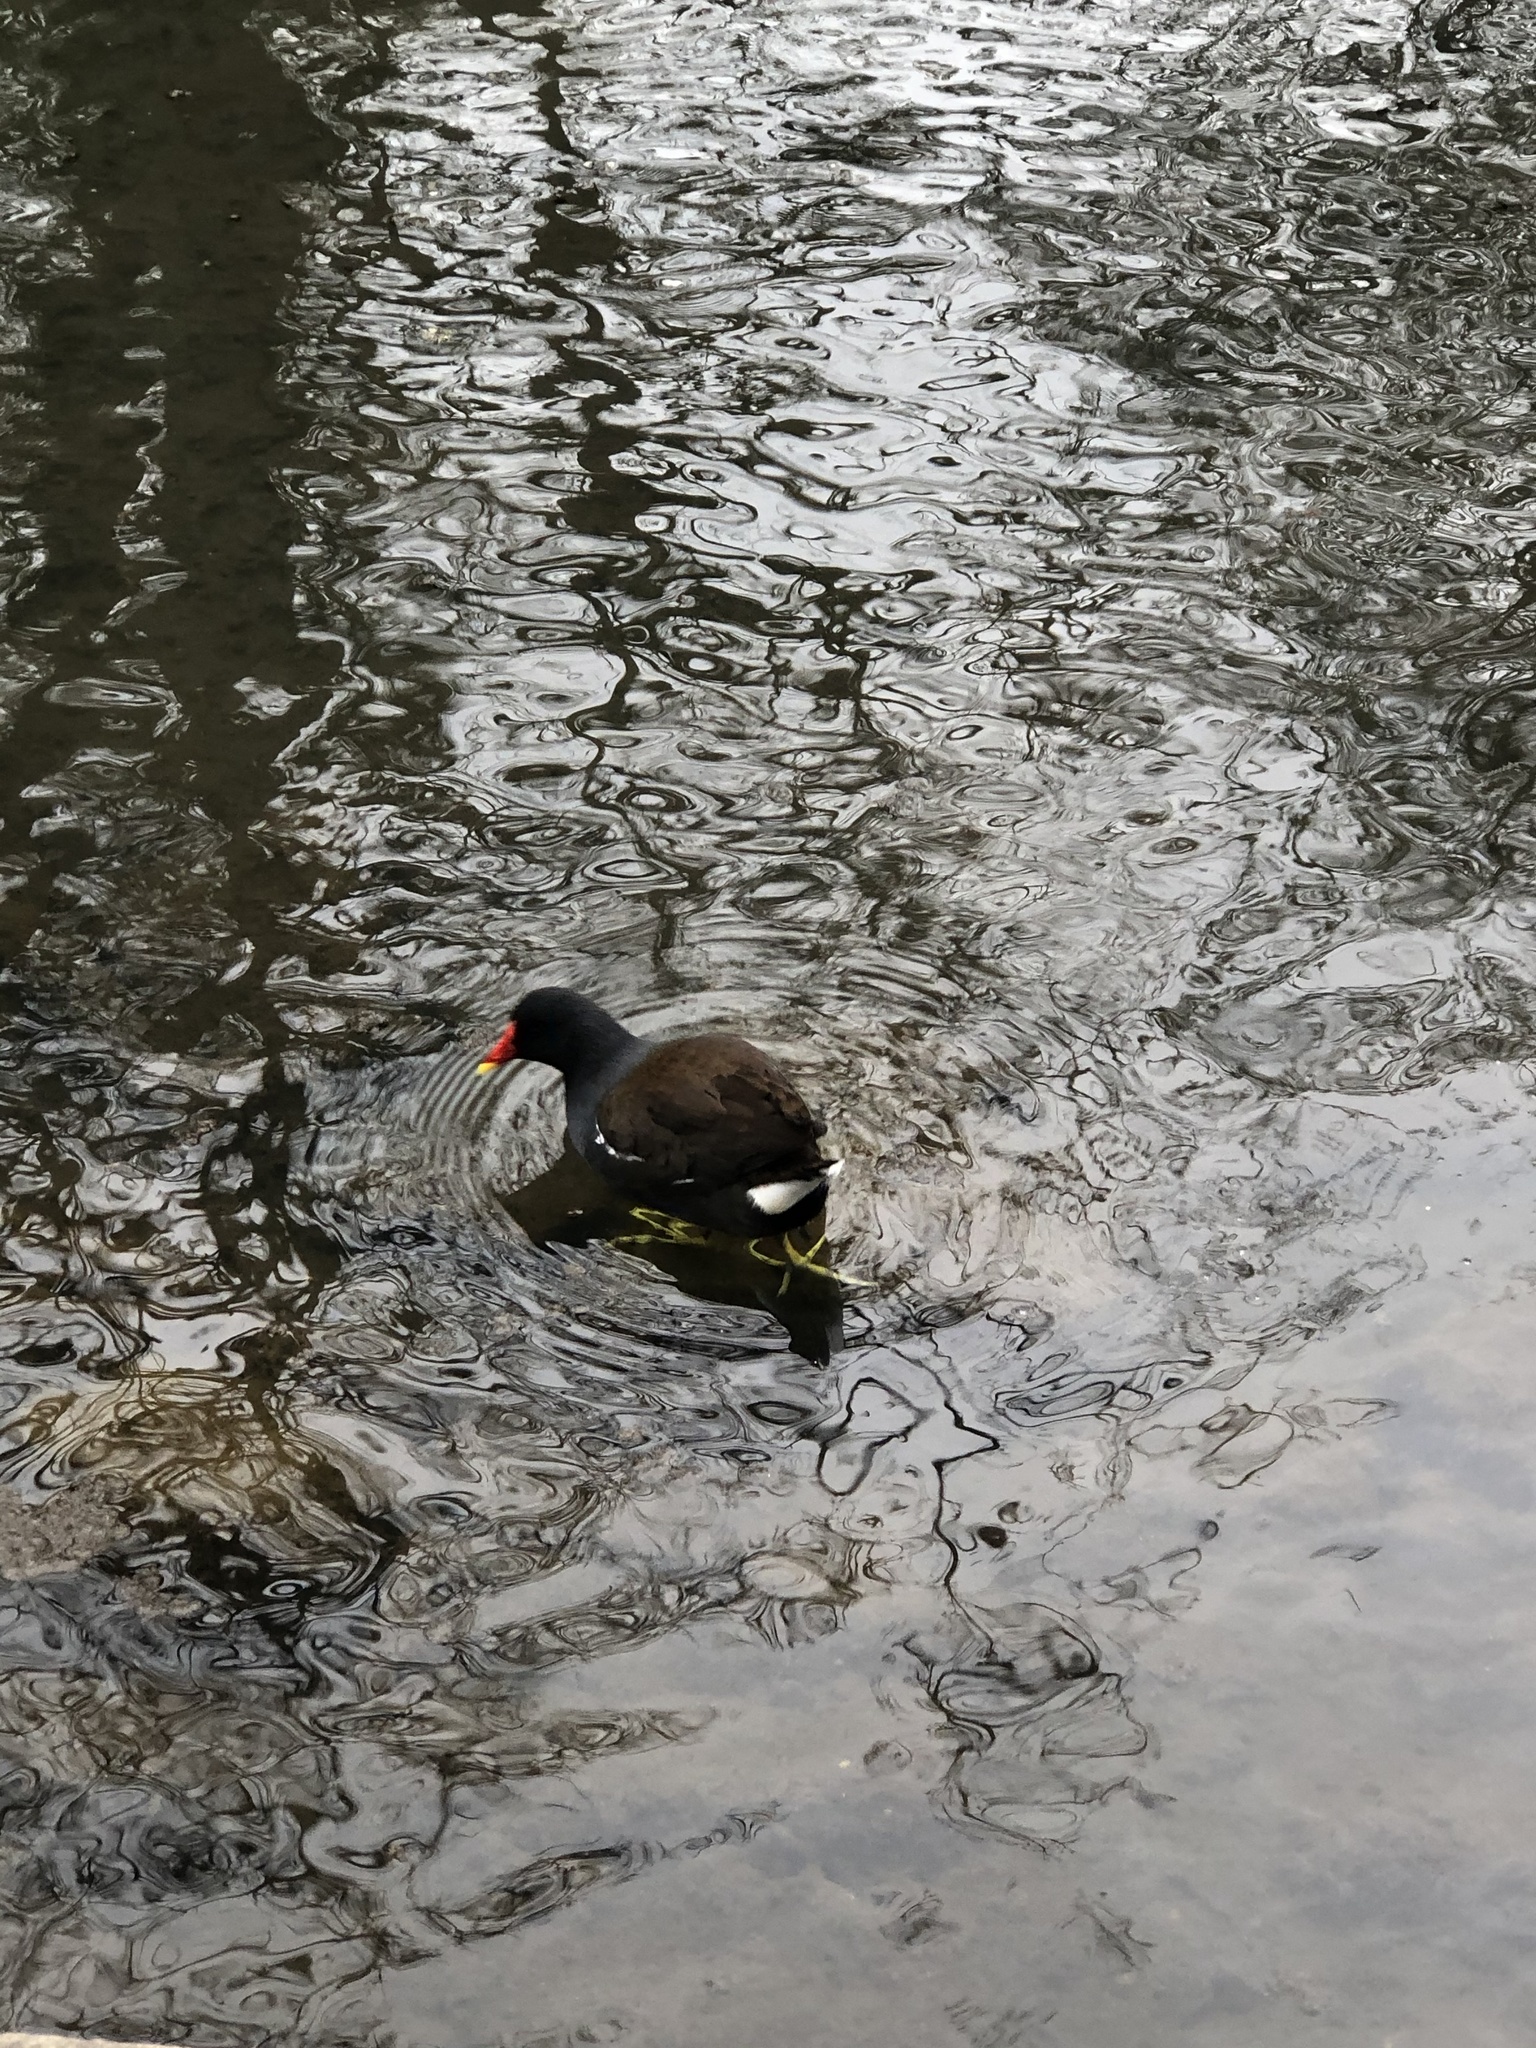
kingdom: Animalia
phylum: Chordata
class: Aves
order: Gruiformes
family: Rallidae
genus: Gallinula
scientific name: Gallinula chloropus
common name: Common moorhen
